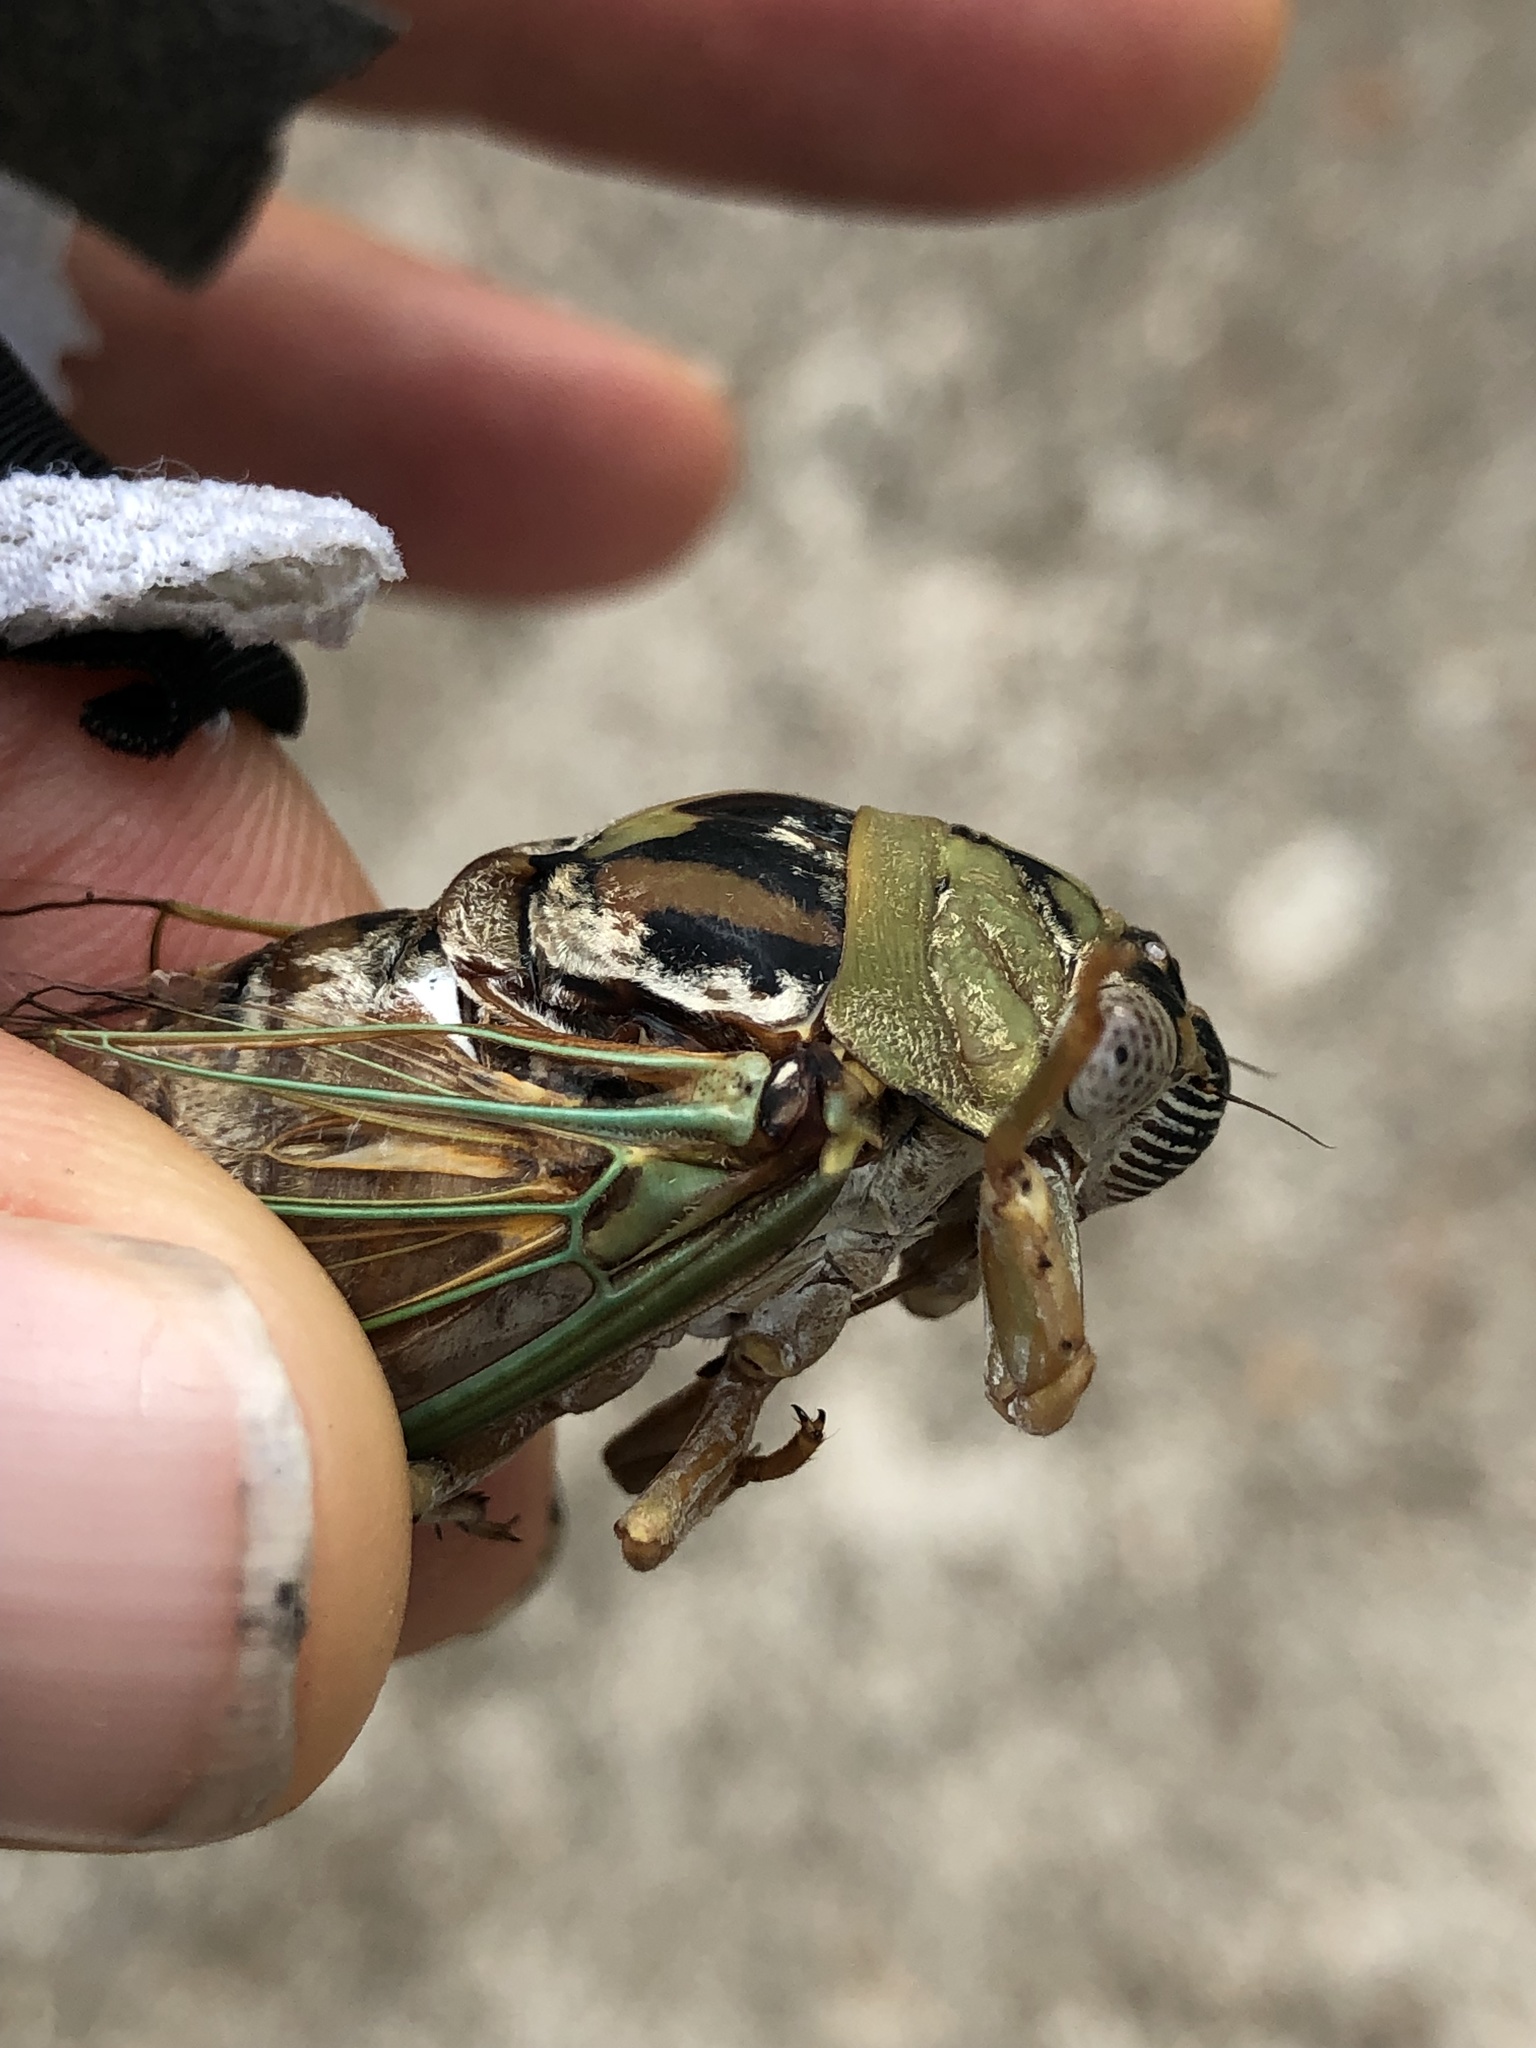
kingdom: Animalia
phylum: Arthropoda
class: Insecta
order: Hemiptera
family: Cicadidae
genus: Megatibicen
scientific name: Megatibicen resh
